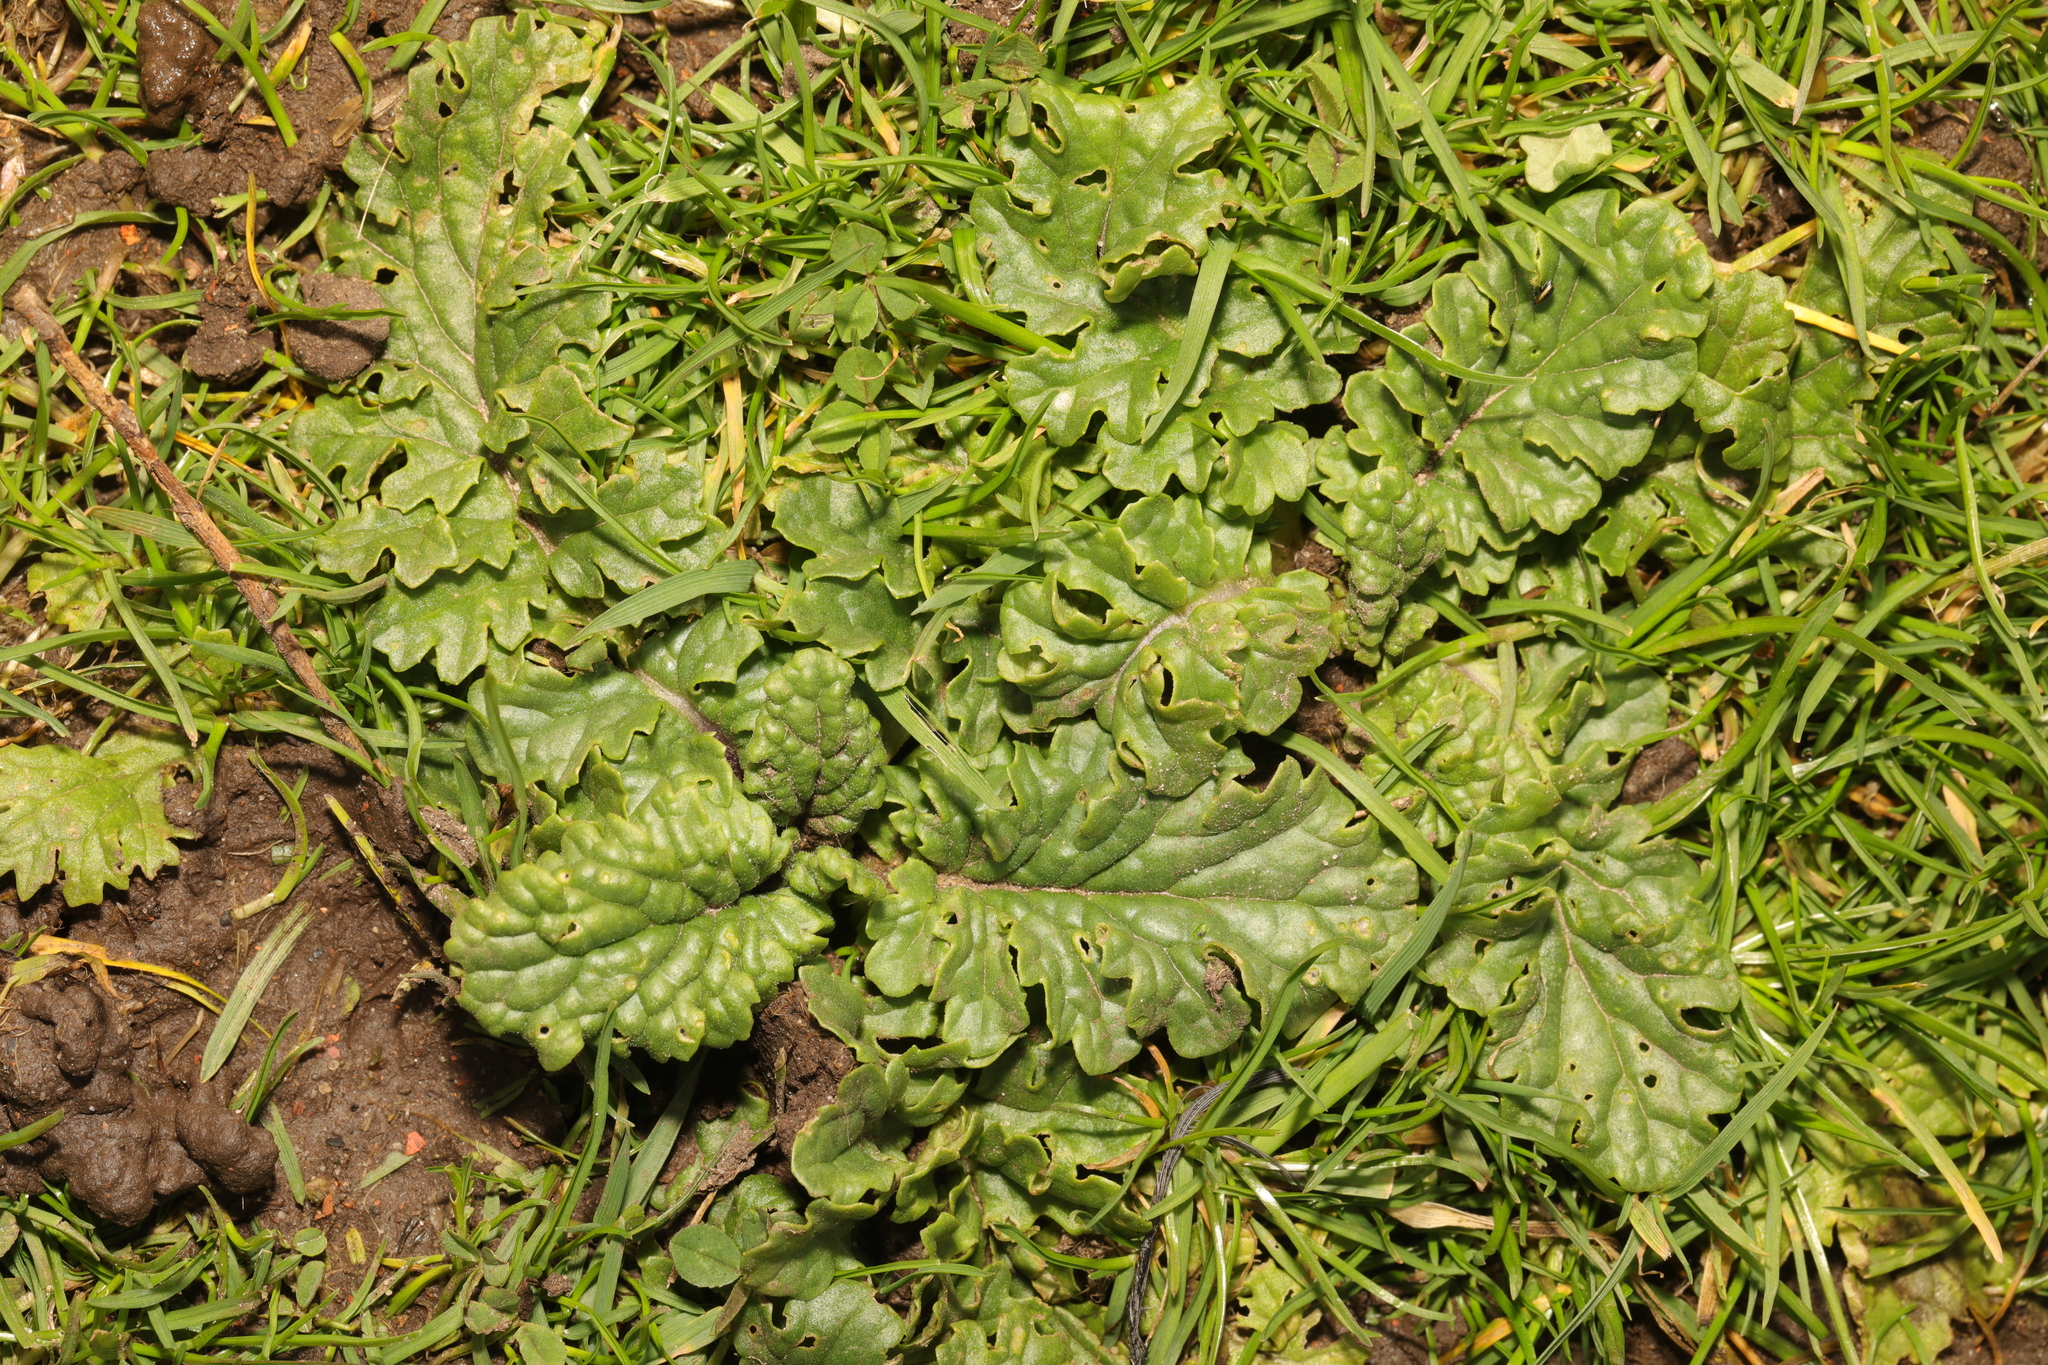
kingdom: Plantae
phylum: Tracheophyta
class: Magnoliopsida
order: Asterales
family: Asteraceae
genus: Jacobaea
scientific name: Jacobaea vulgaris
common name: Stinking willie
